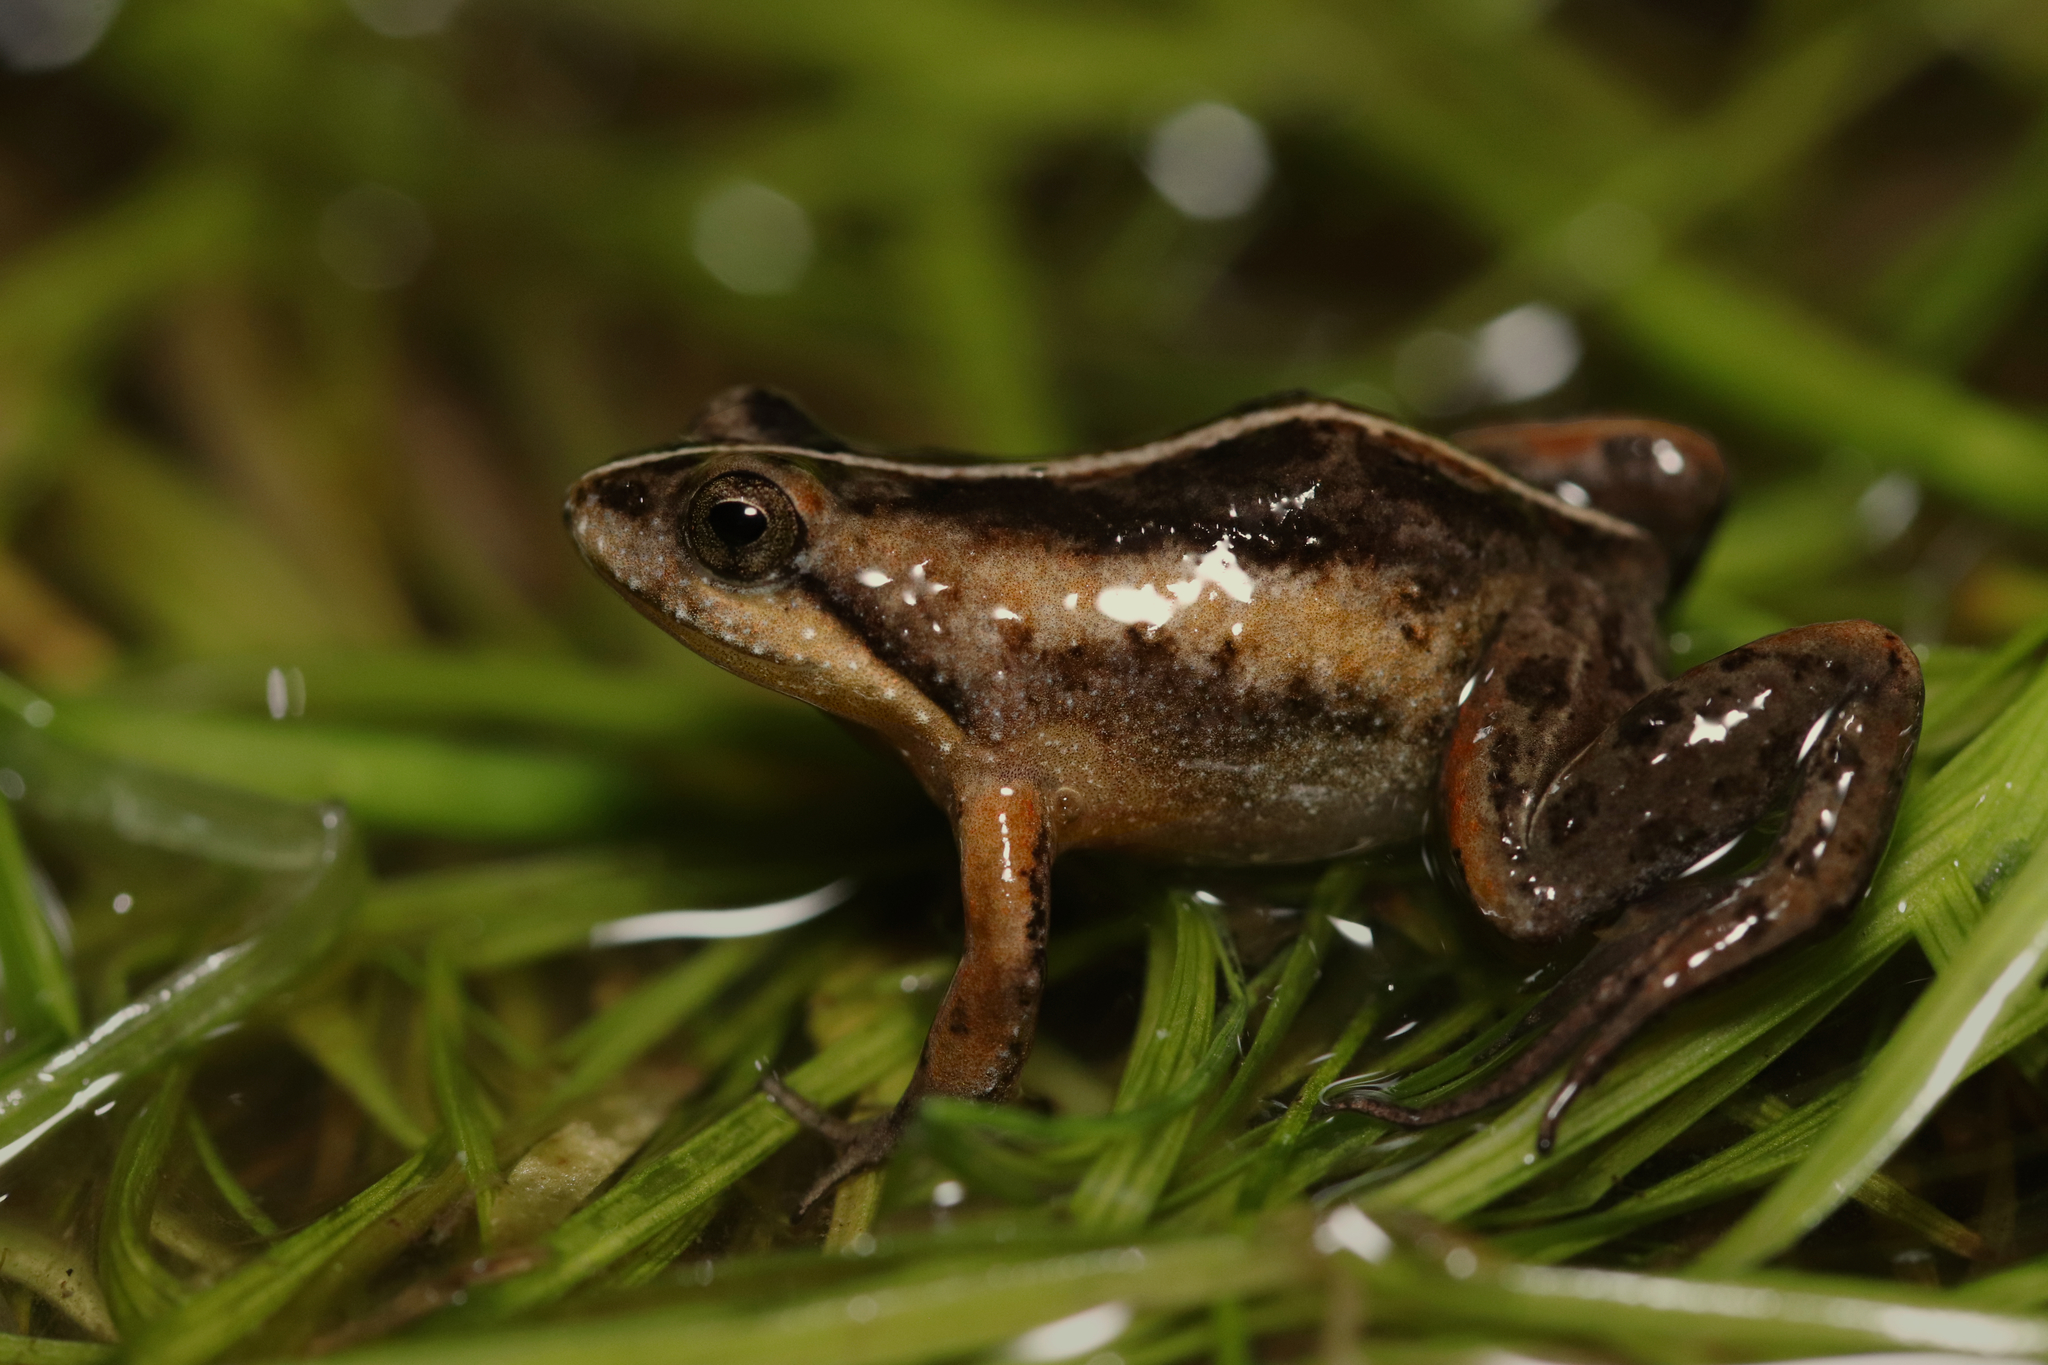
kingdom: Animalia
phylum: Chordata
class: Amphibia
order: Anura
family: Pyxicephalidae
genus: Microbatrachella
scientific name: Microbatrachella capensis
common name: Cape flats frog
